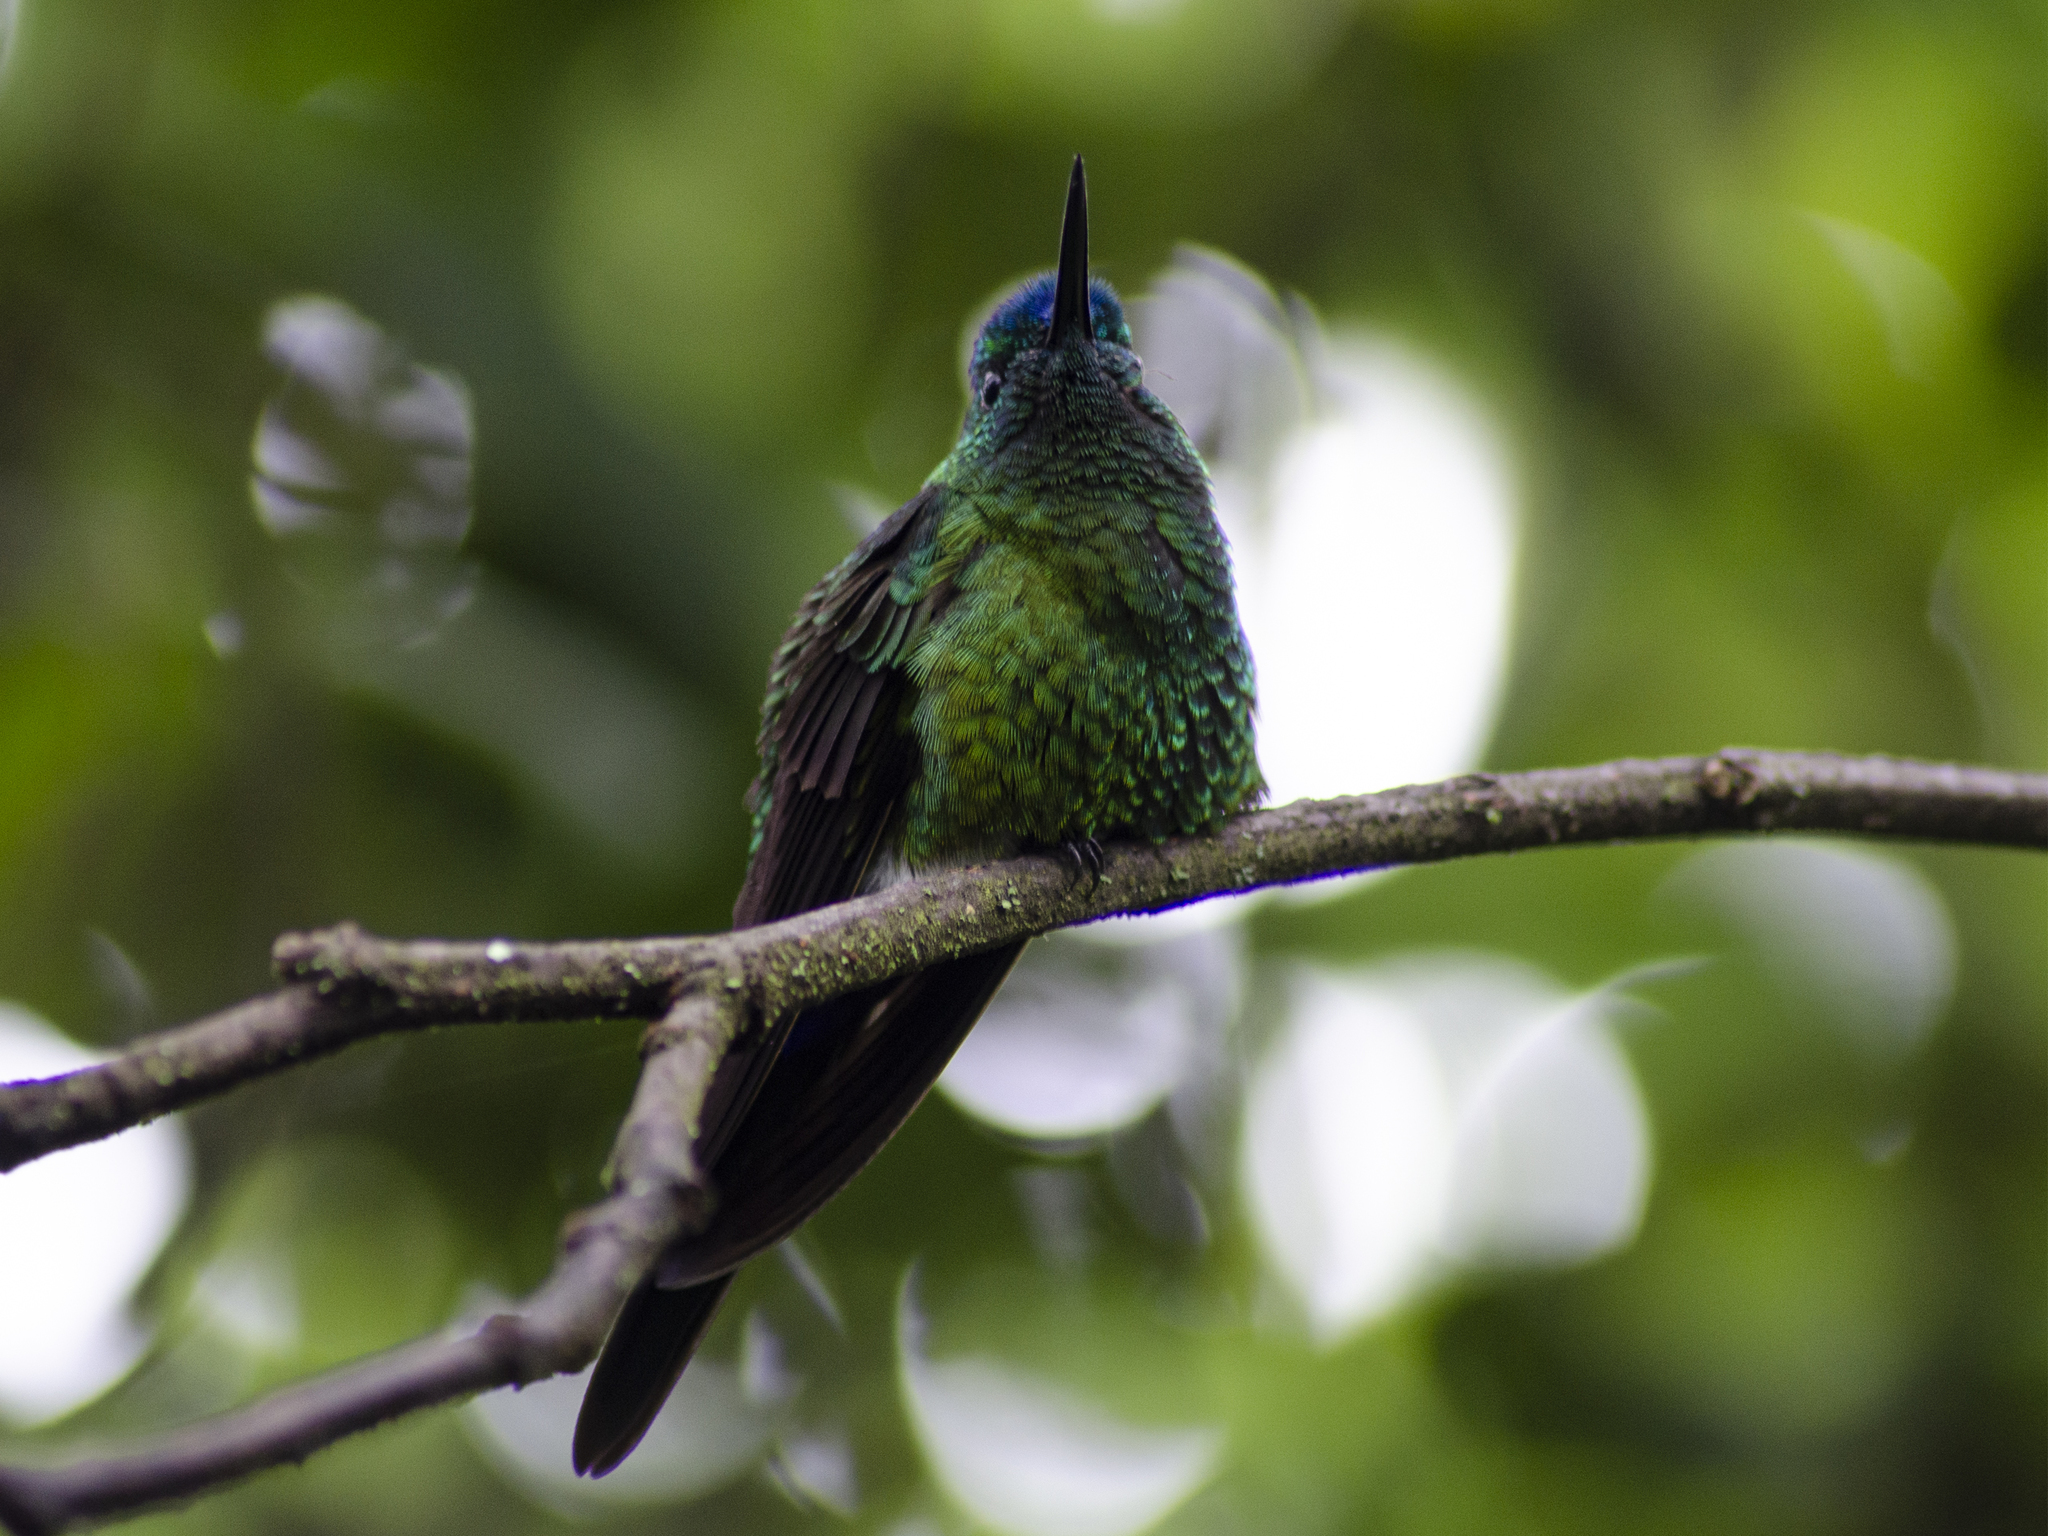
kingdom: Animalia
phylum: Chordata
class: Aves
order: Apodiformes
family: Trochilidae
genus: Eriocnemis
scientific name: Eriocnemis luciani
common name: Sapphire-vented puffleg
